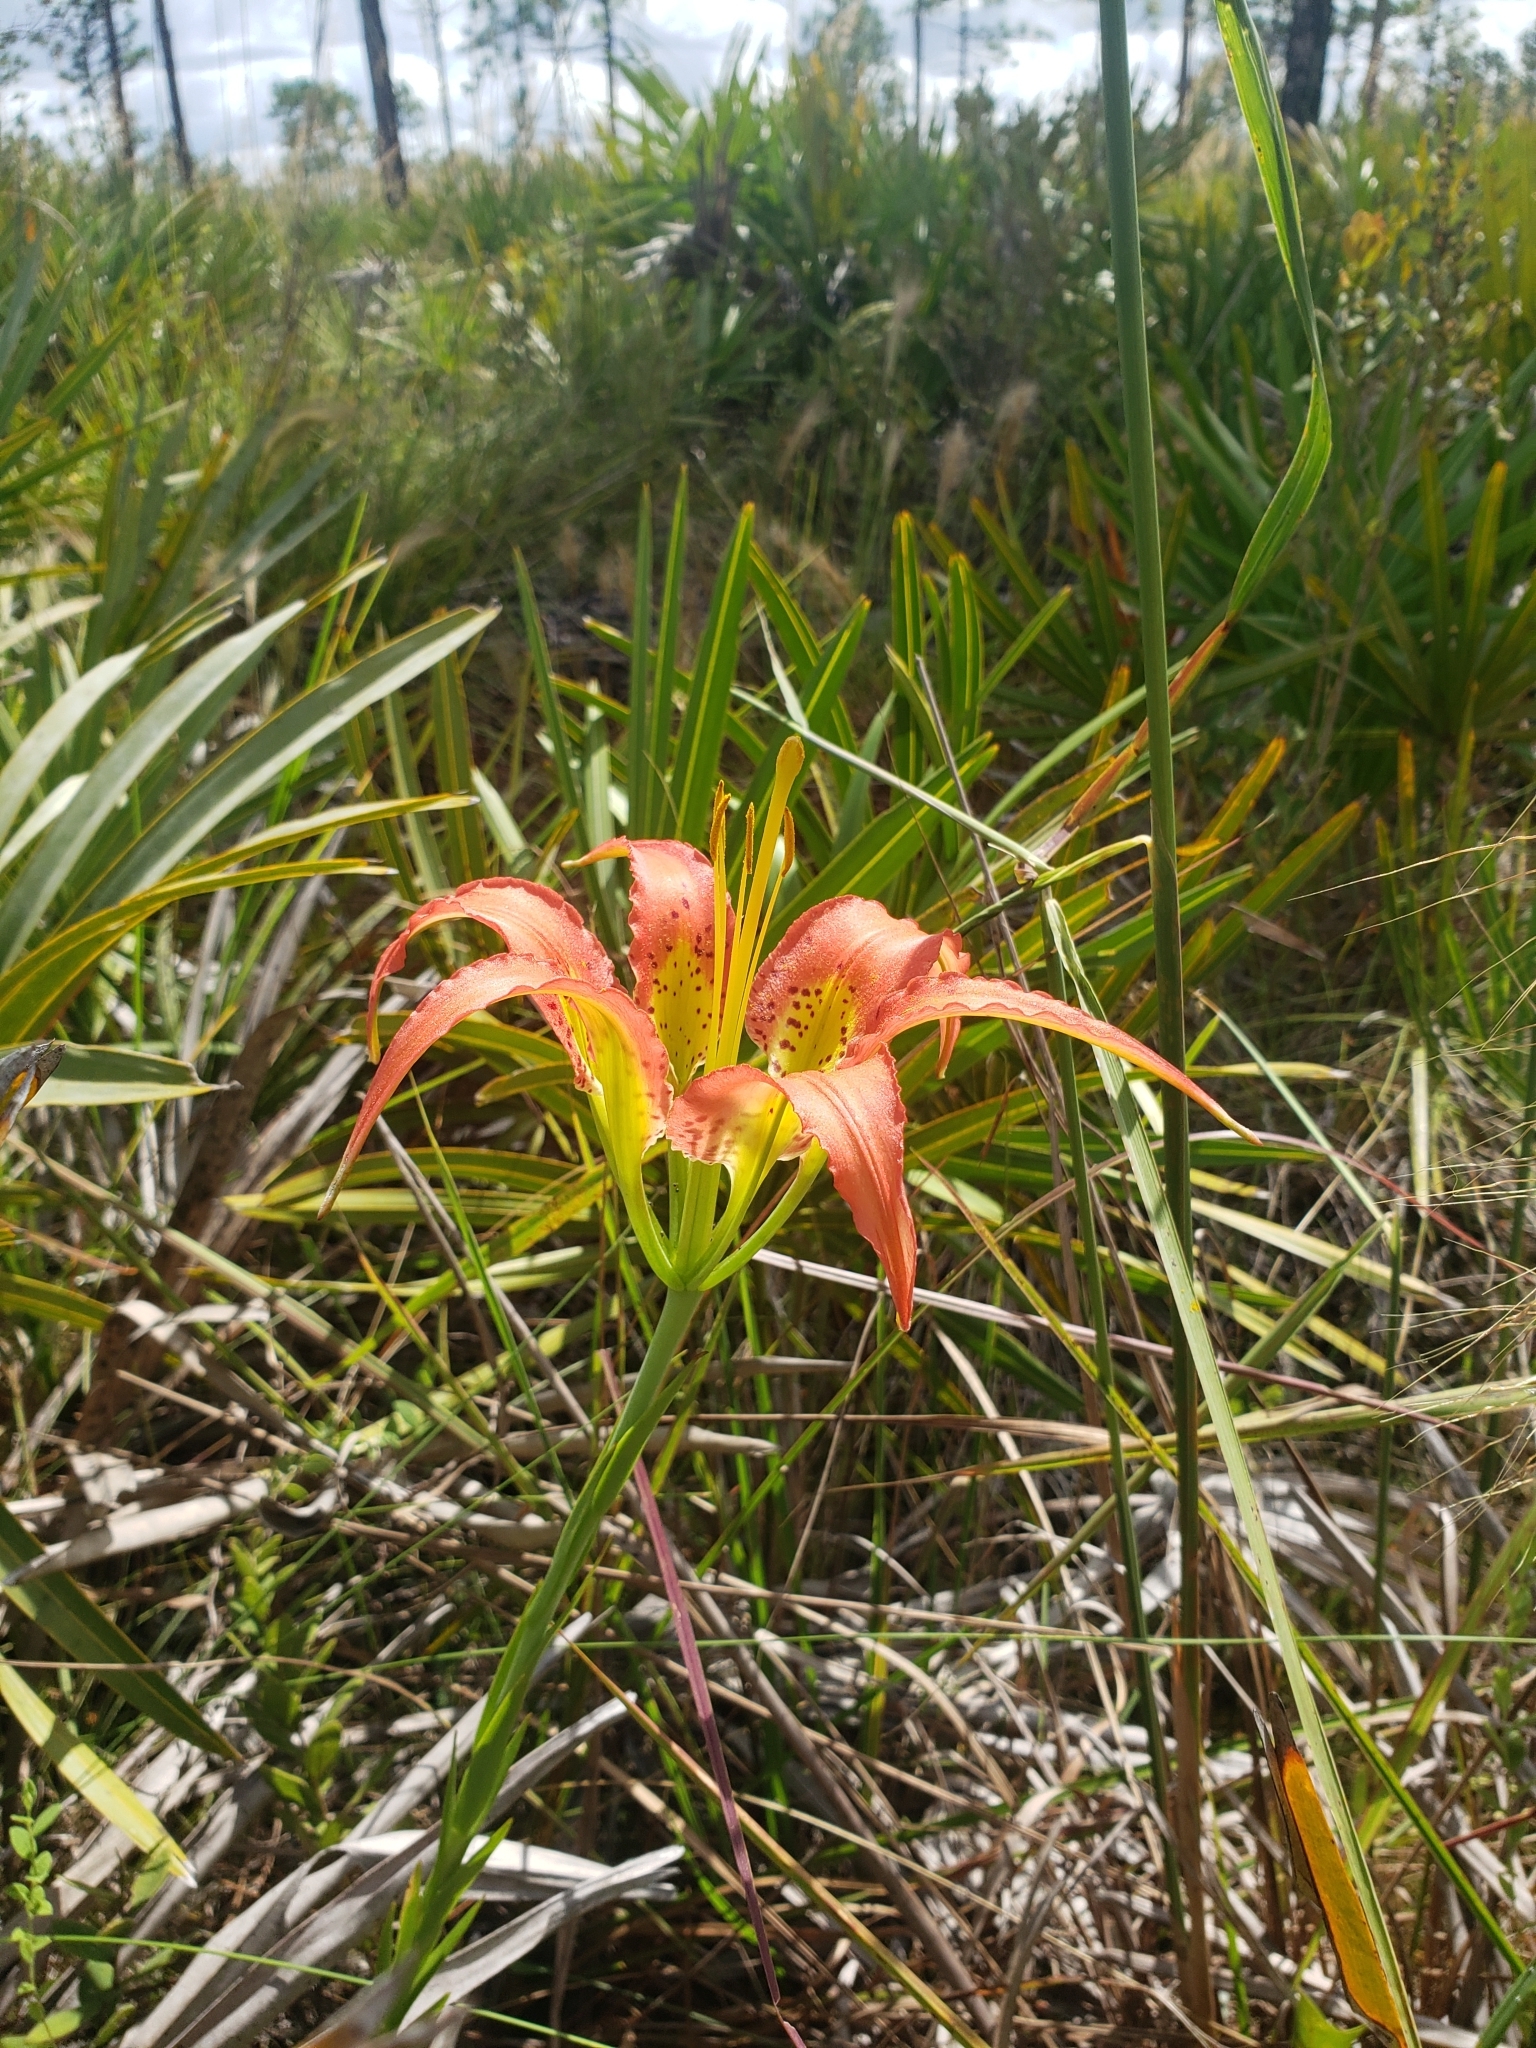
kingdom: Plantae
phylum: Tracheophyta
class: Liliopsida
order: Liliales
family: Liliaceae
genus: Lilium
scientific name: Lilium catesbaei
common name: Catesby's lily
